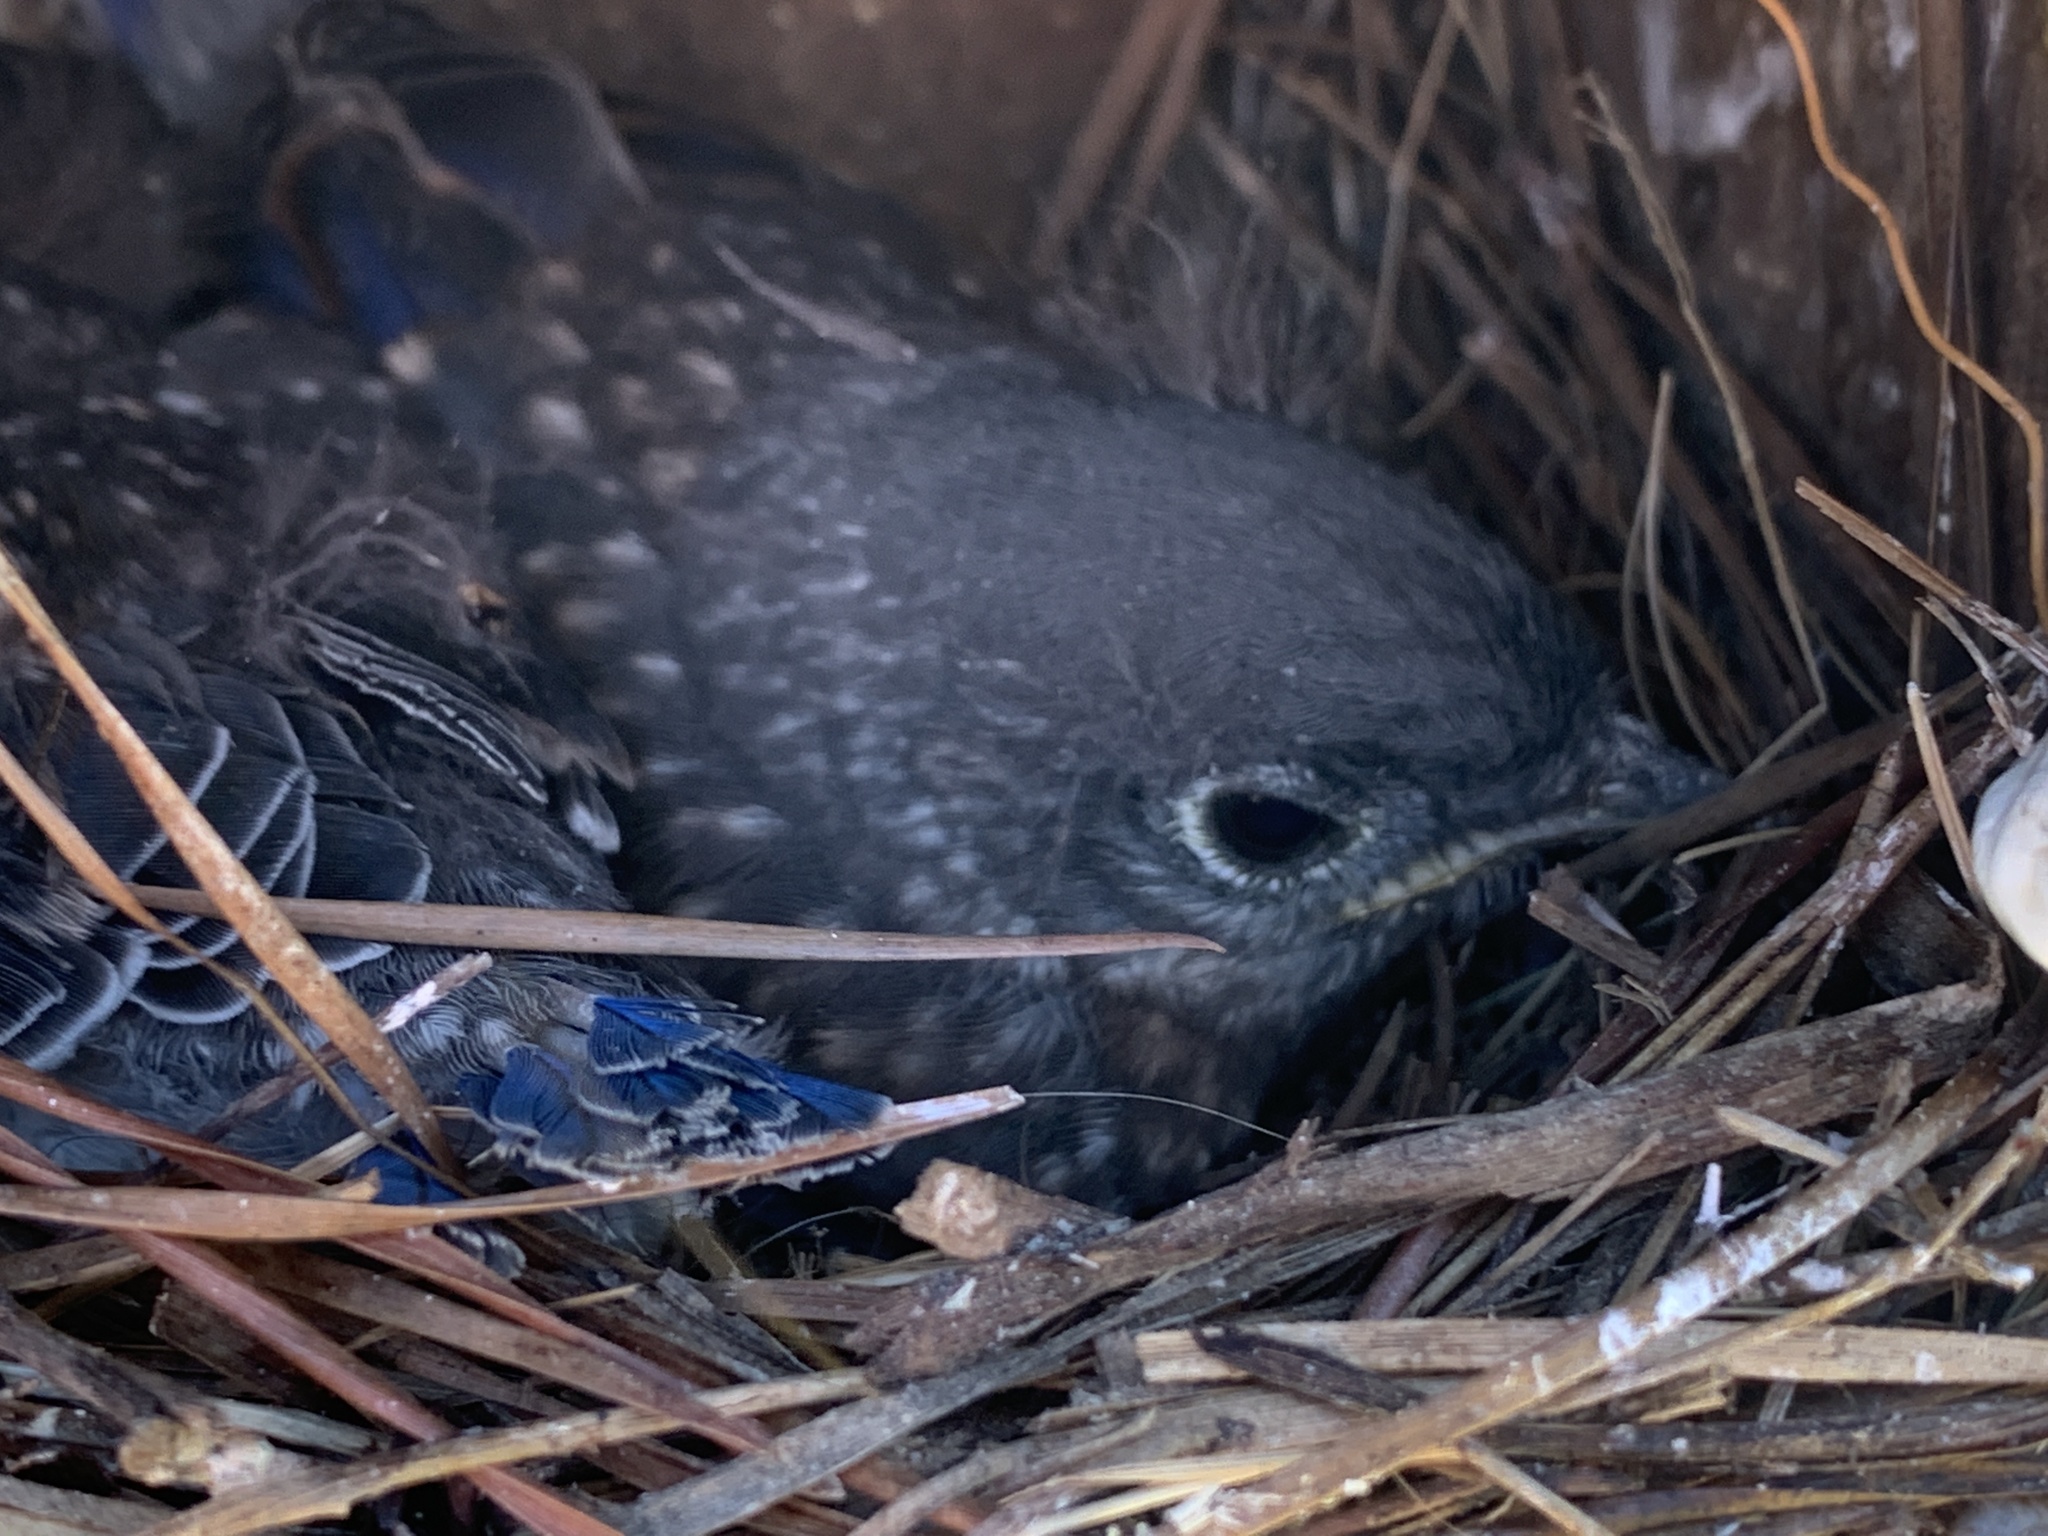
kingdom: Animalia
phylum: Chordata
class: Aves
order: Passeriformes
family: Turdidae
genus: Sialia
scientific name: Sialia sialis
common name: Eastern bluebird
